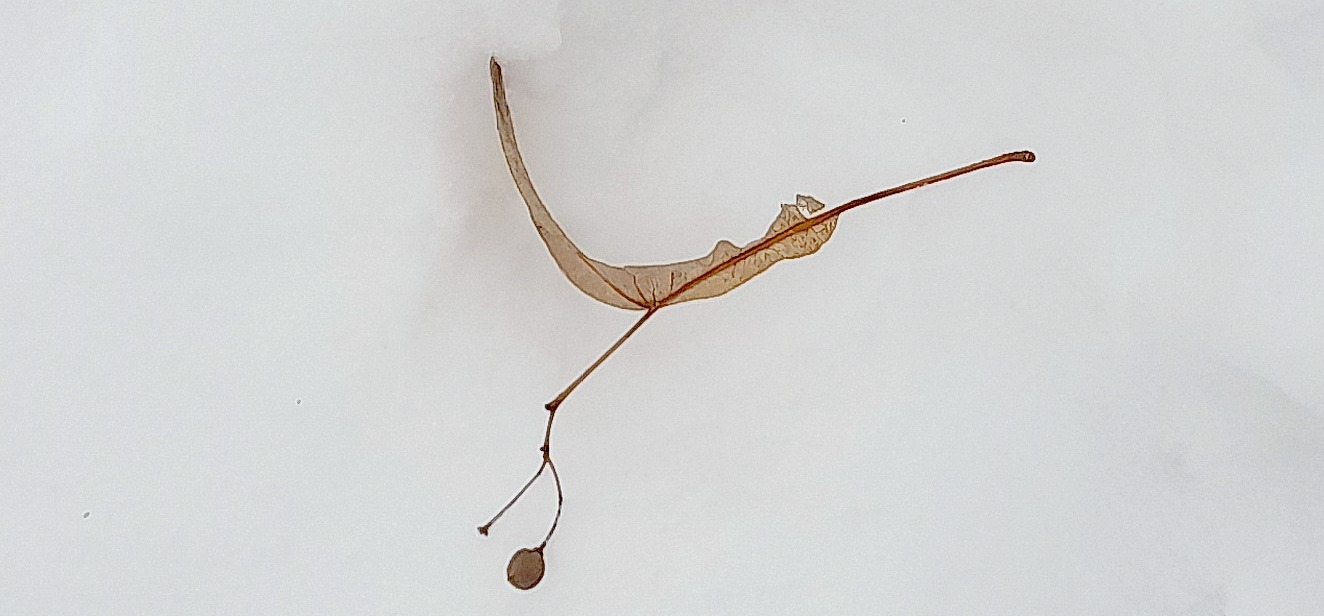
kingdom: Plantae
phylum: Tracheophyta
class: Magnoliopsida
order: Malvales
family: Malvaceae
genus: Tilia
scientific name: Tilia cordata
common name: Small-leaved lime
